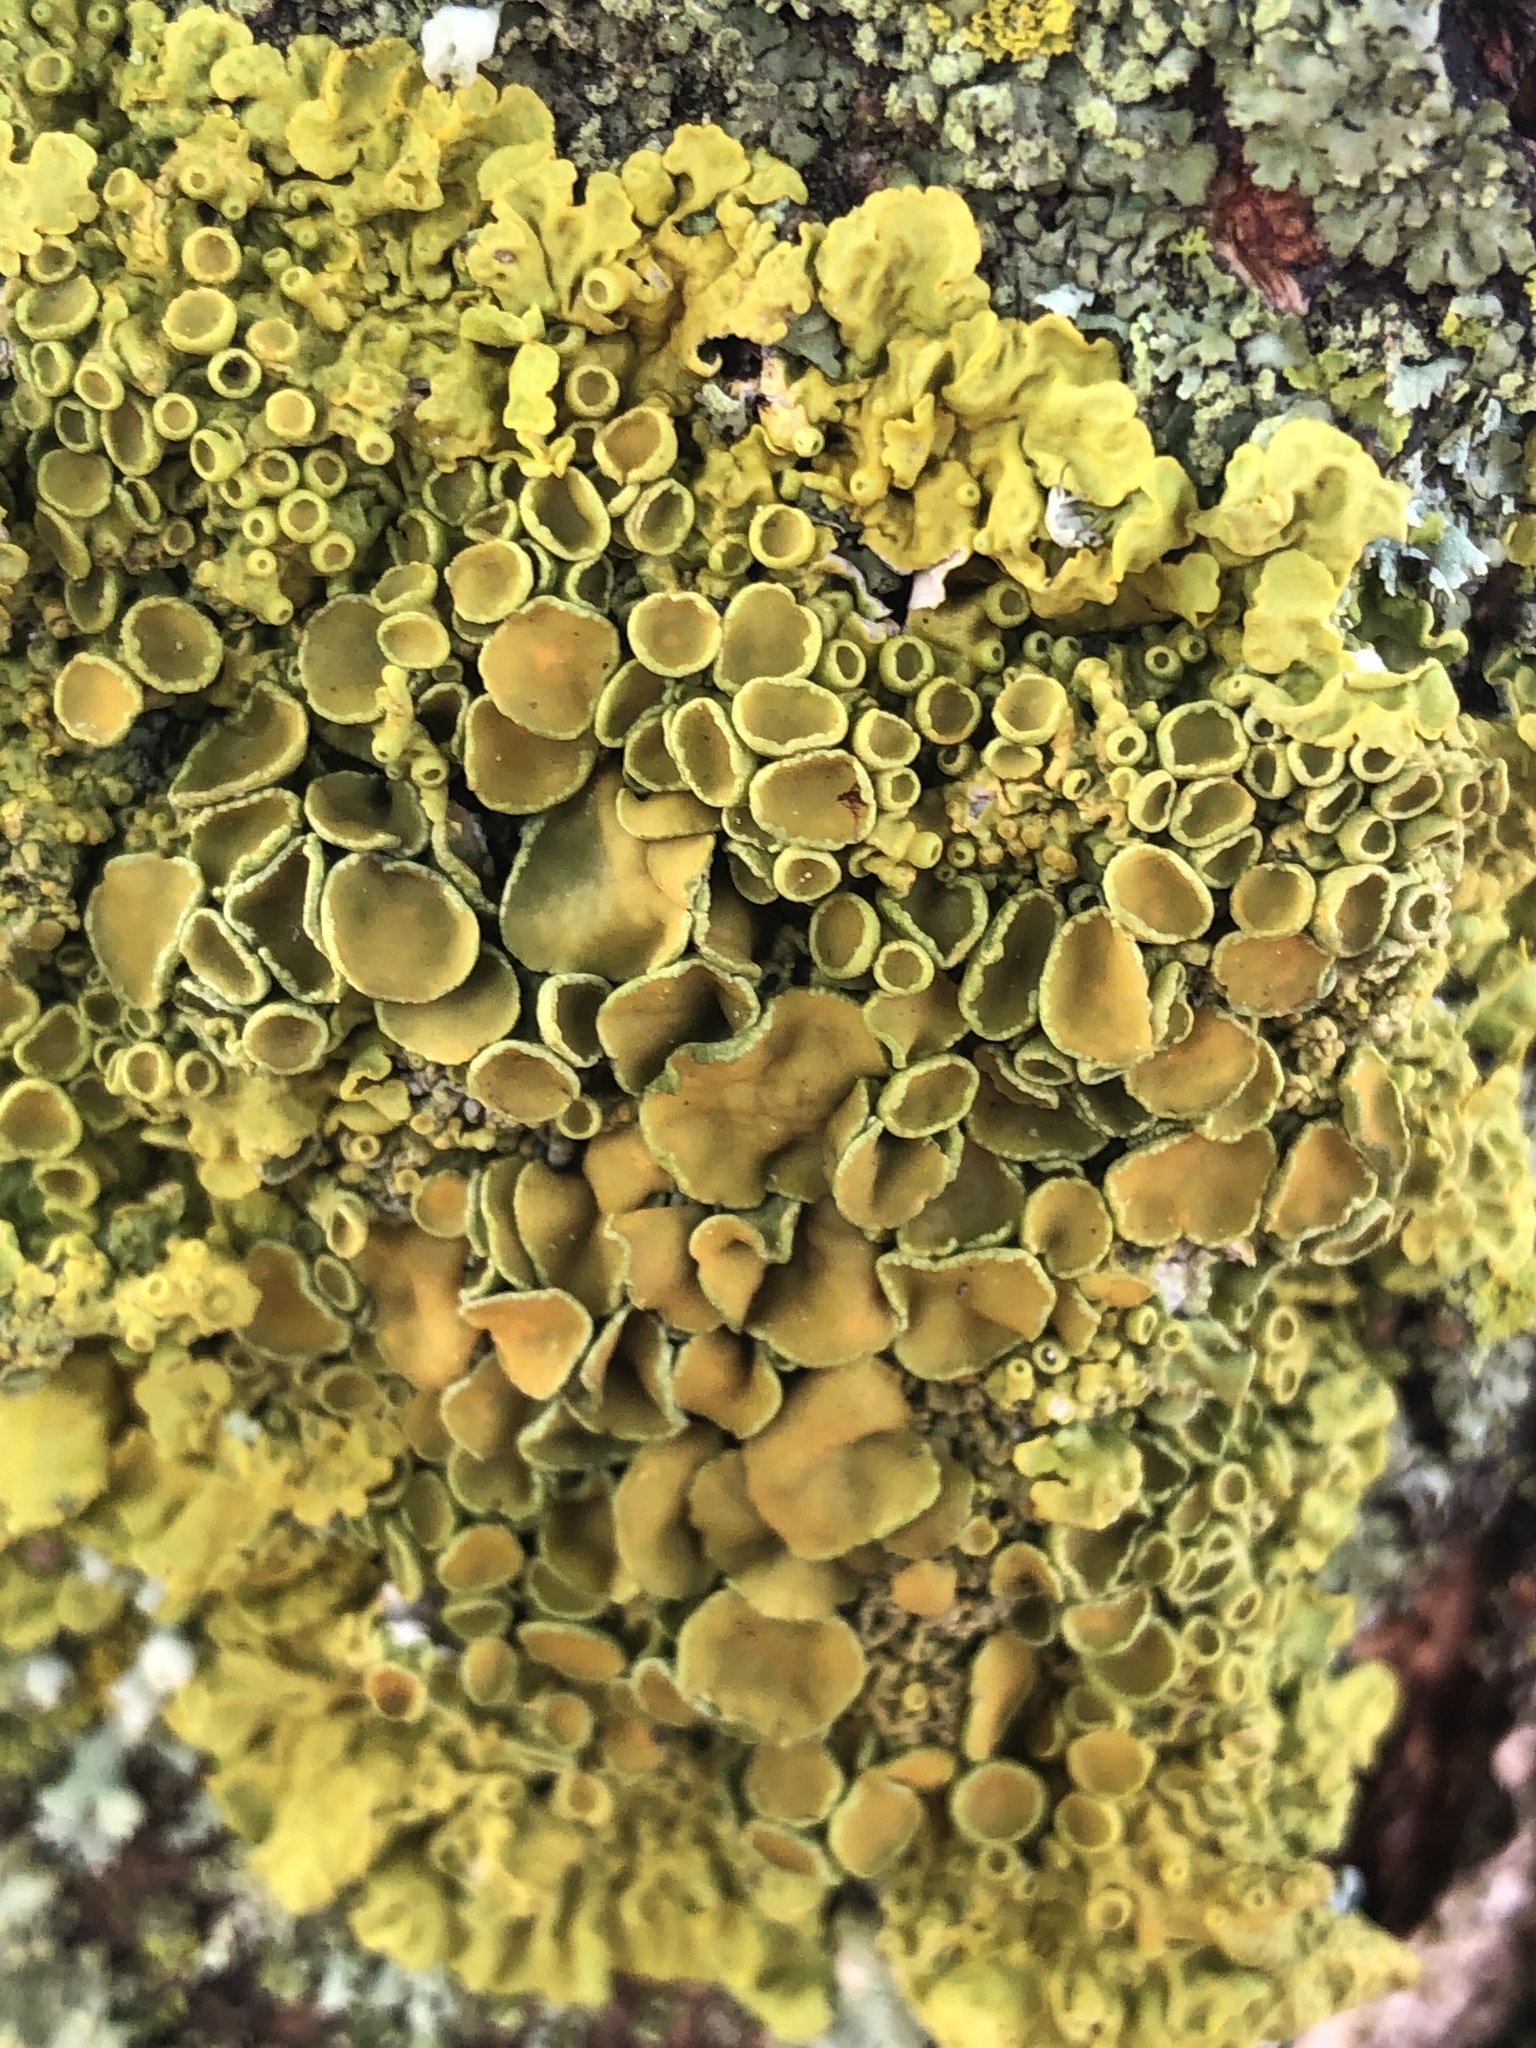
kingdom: Fungi
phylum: Ascomycota
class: Lecanoromycetes
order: Teloschistales
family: Teloschistaceae
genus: Xanthoria
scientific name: Xanthoria parietina
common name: Common orange lichen
